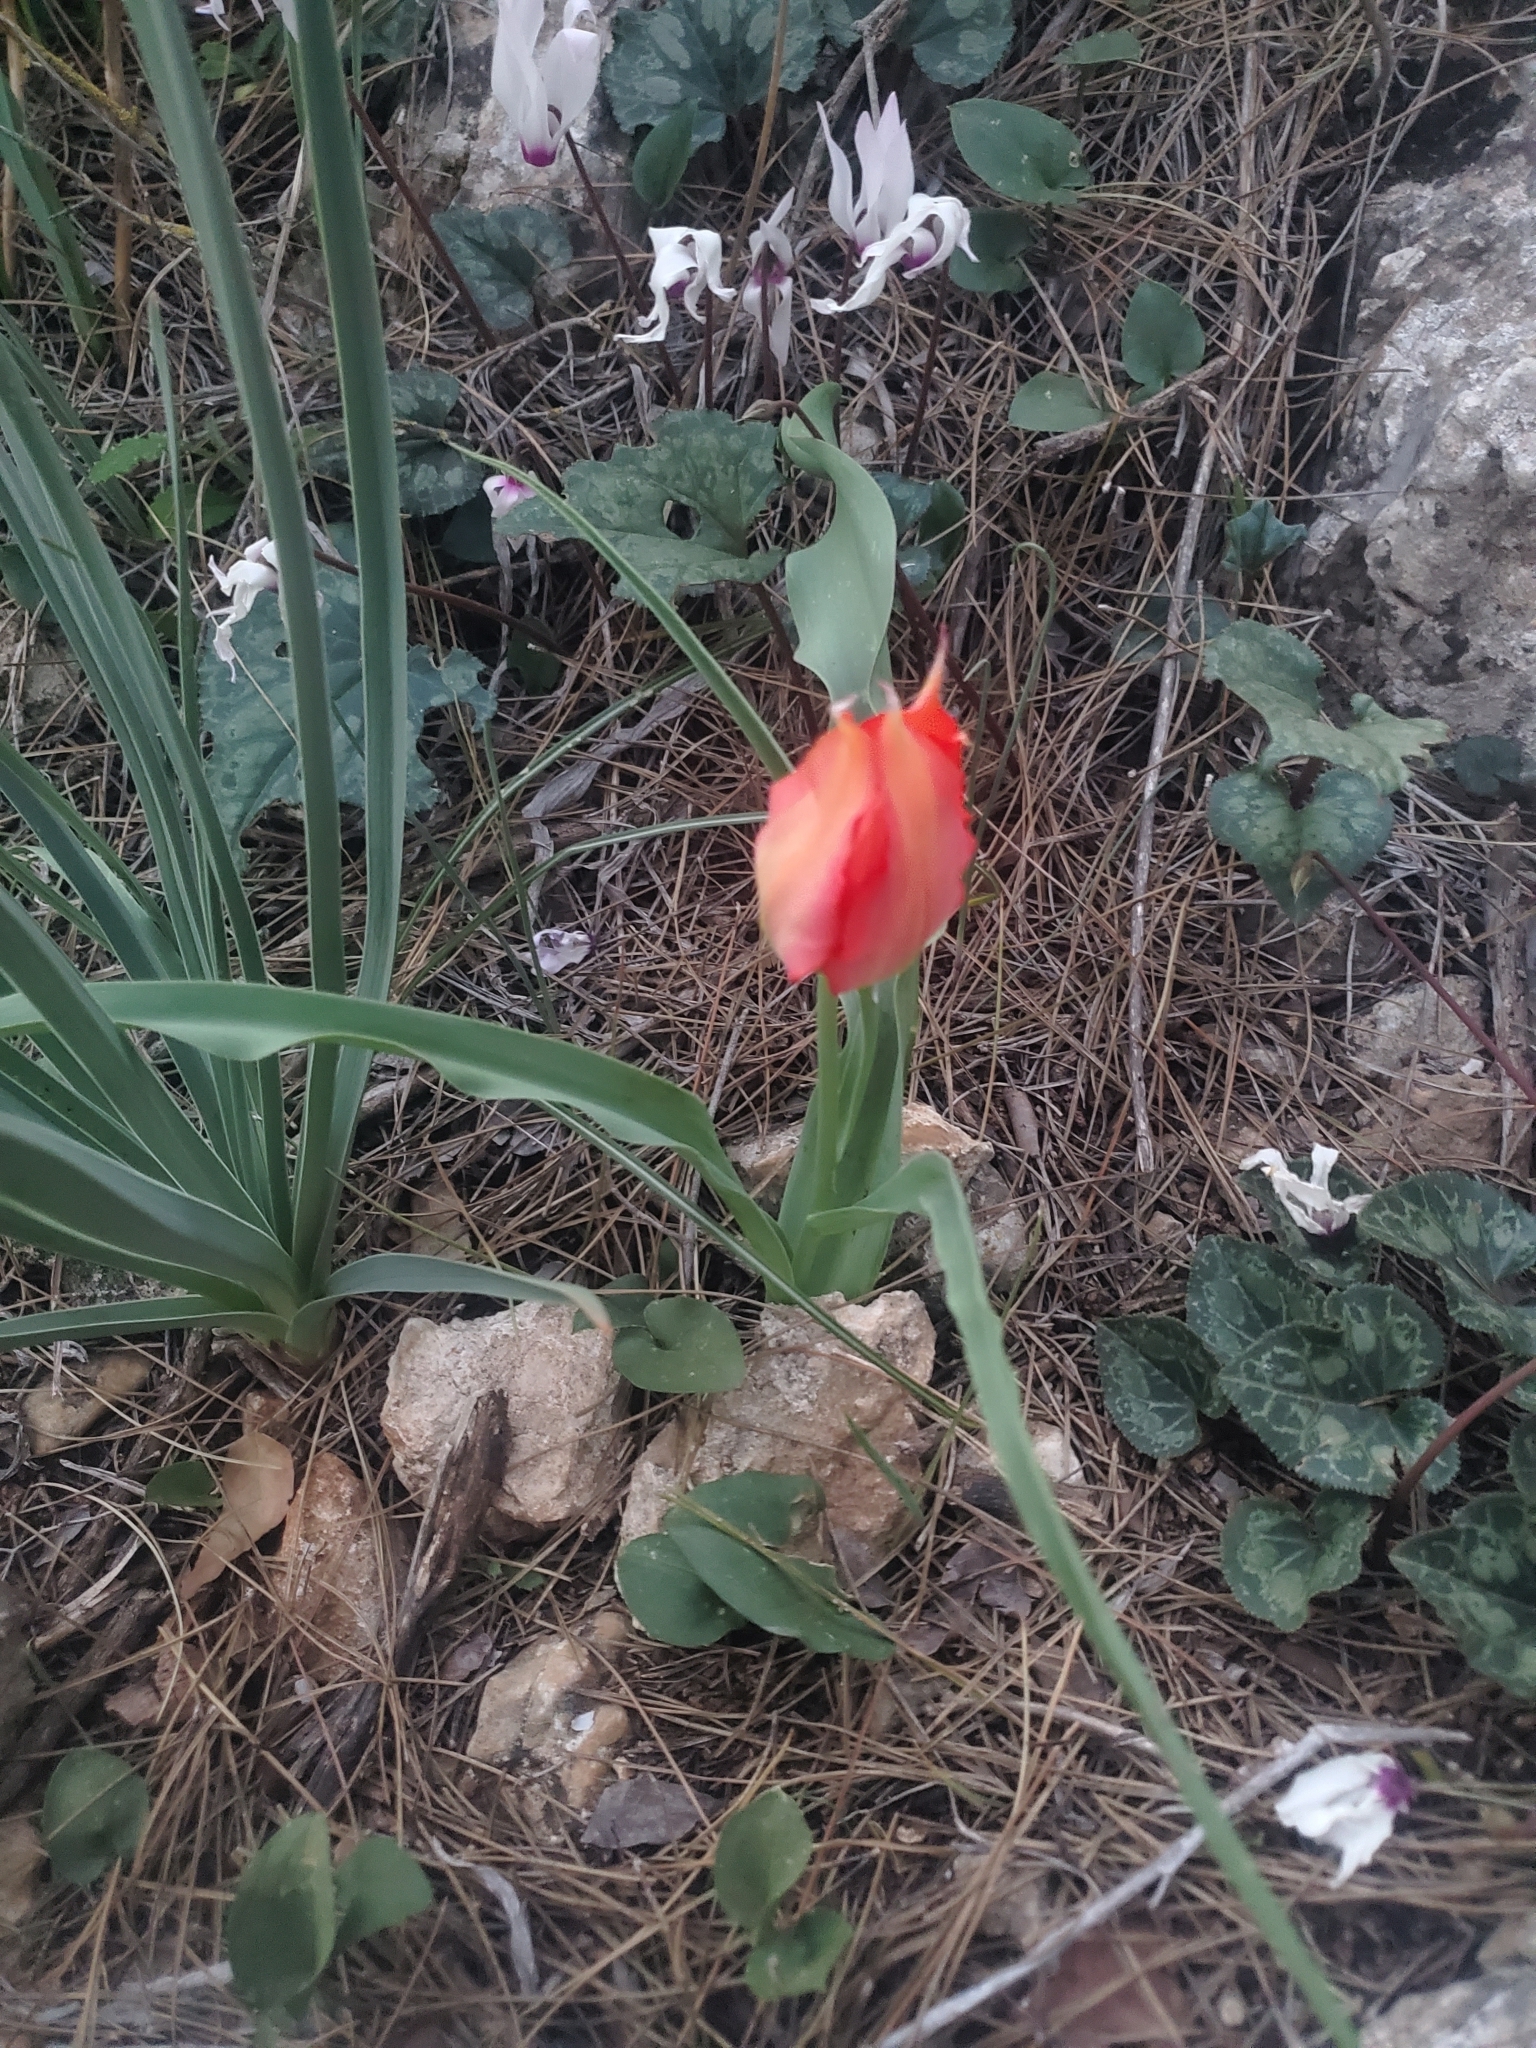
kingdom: Plantae
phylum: Tracheophyta
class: Liliopsida
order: Liliales
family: Liliaceae
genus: Tulipa
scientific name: Tulipa agenensis
